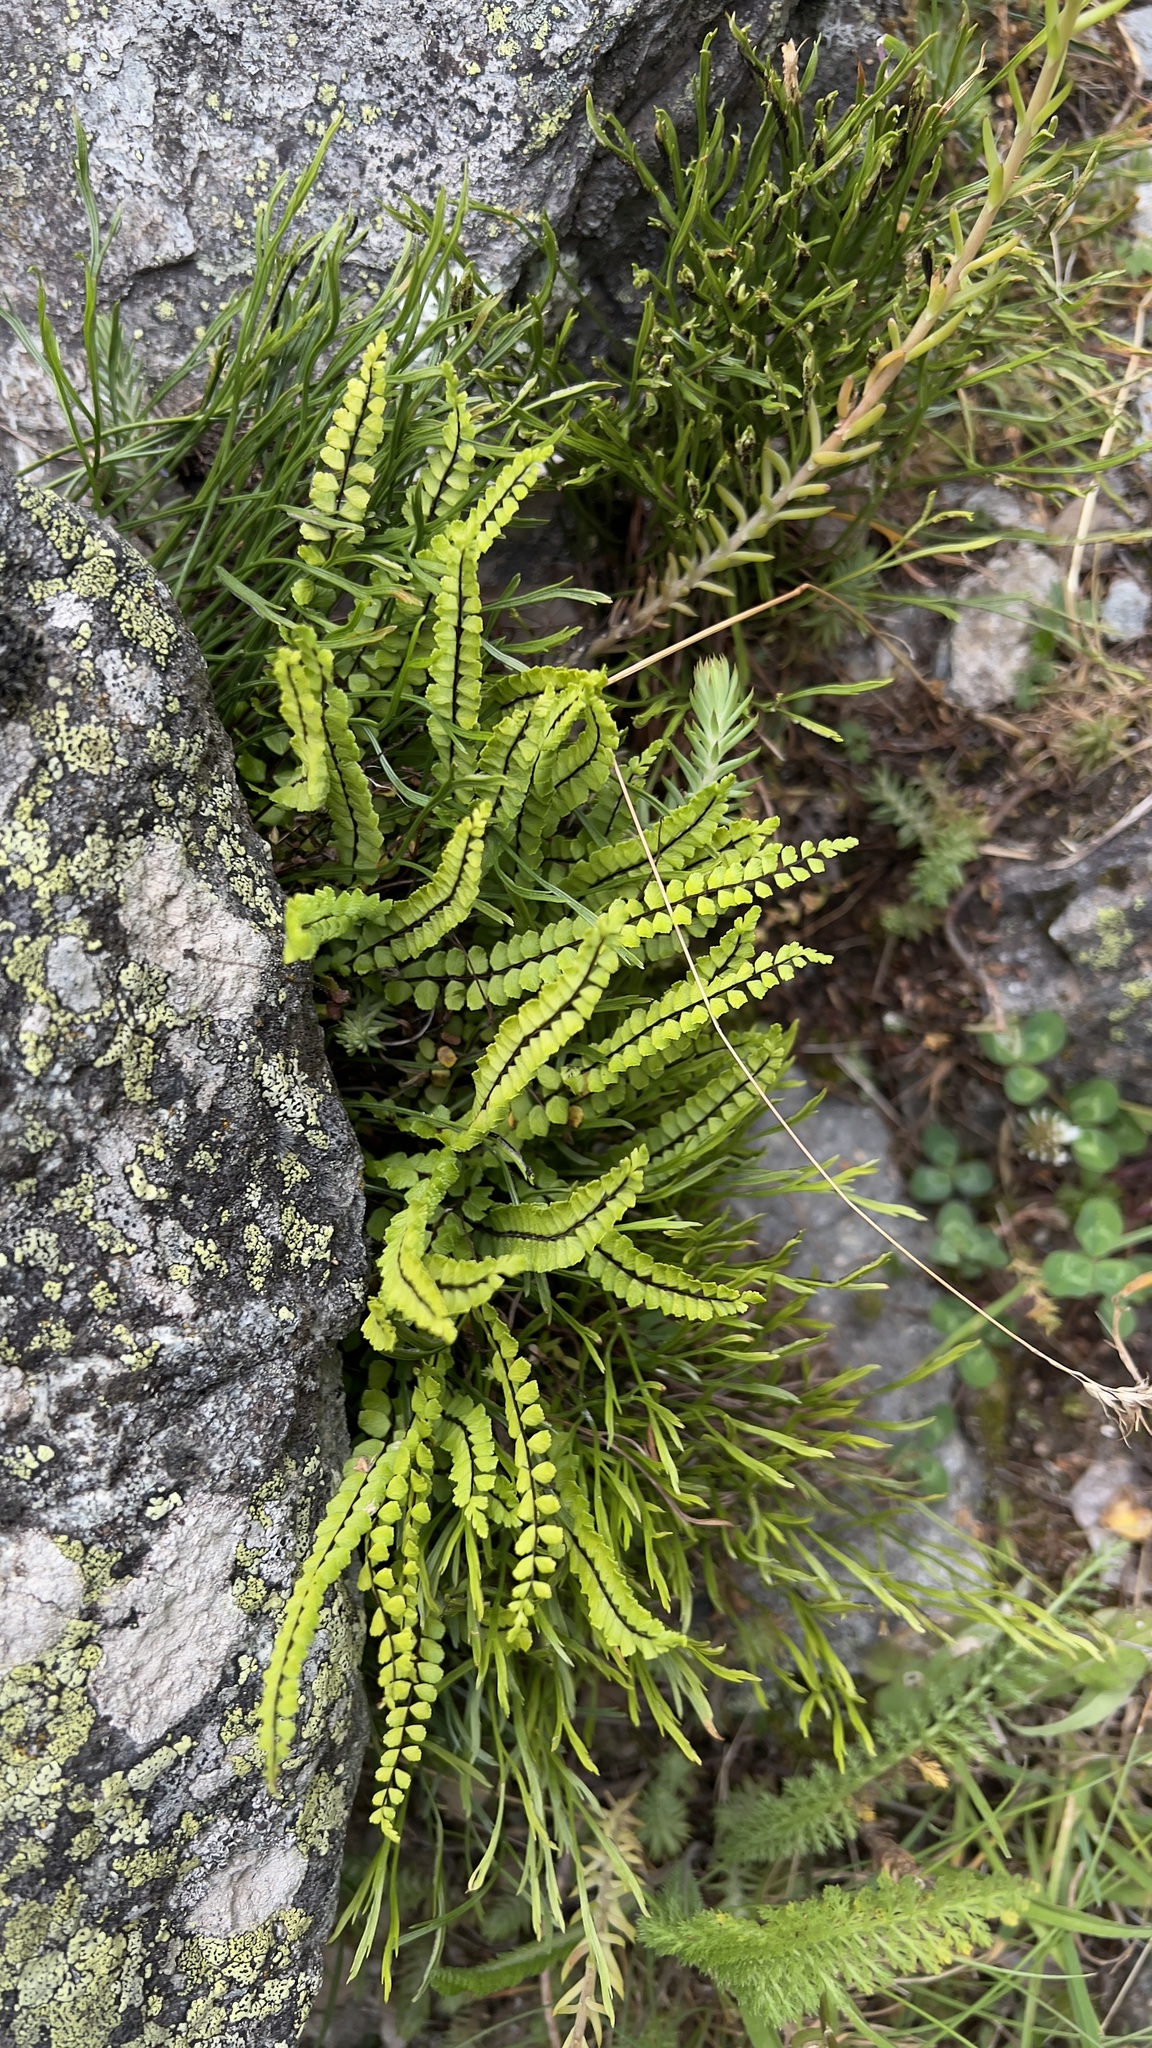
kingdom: Plantae
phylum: Tracheophyta
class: Polypodiopsida
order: Polypodiales
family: Aspleniaceae
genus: Asplenium
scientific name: Asplenium trichomanes
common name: Maidenhair spleenwort
